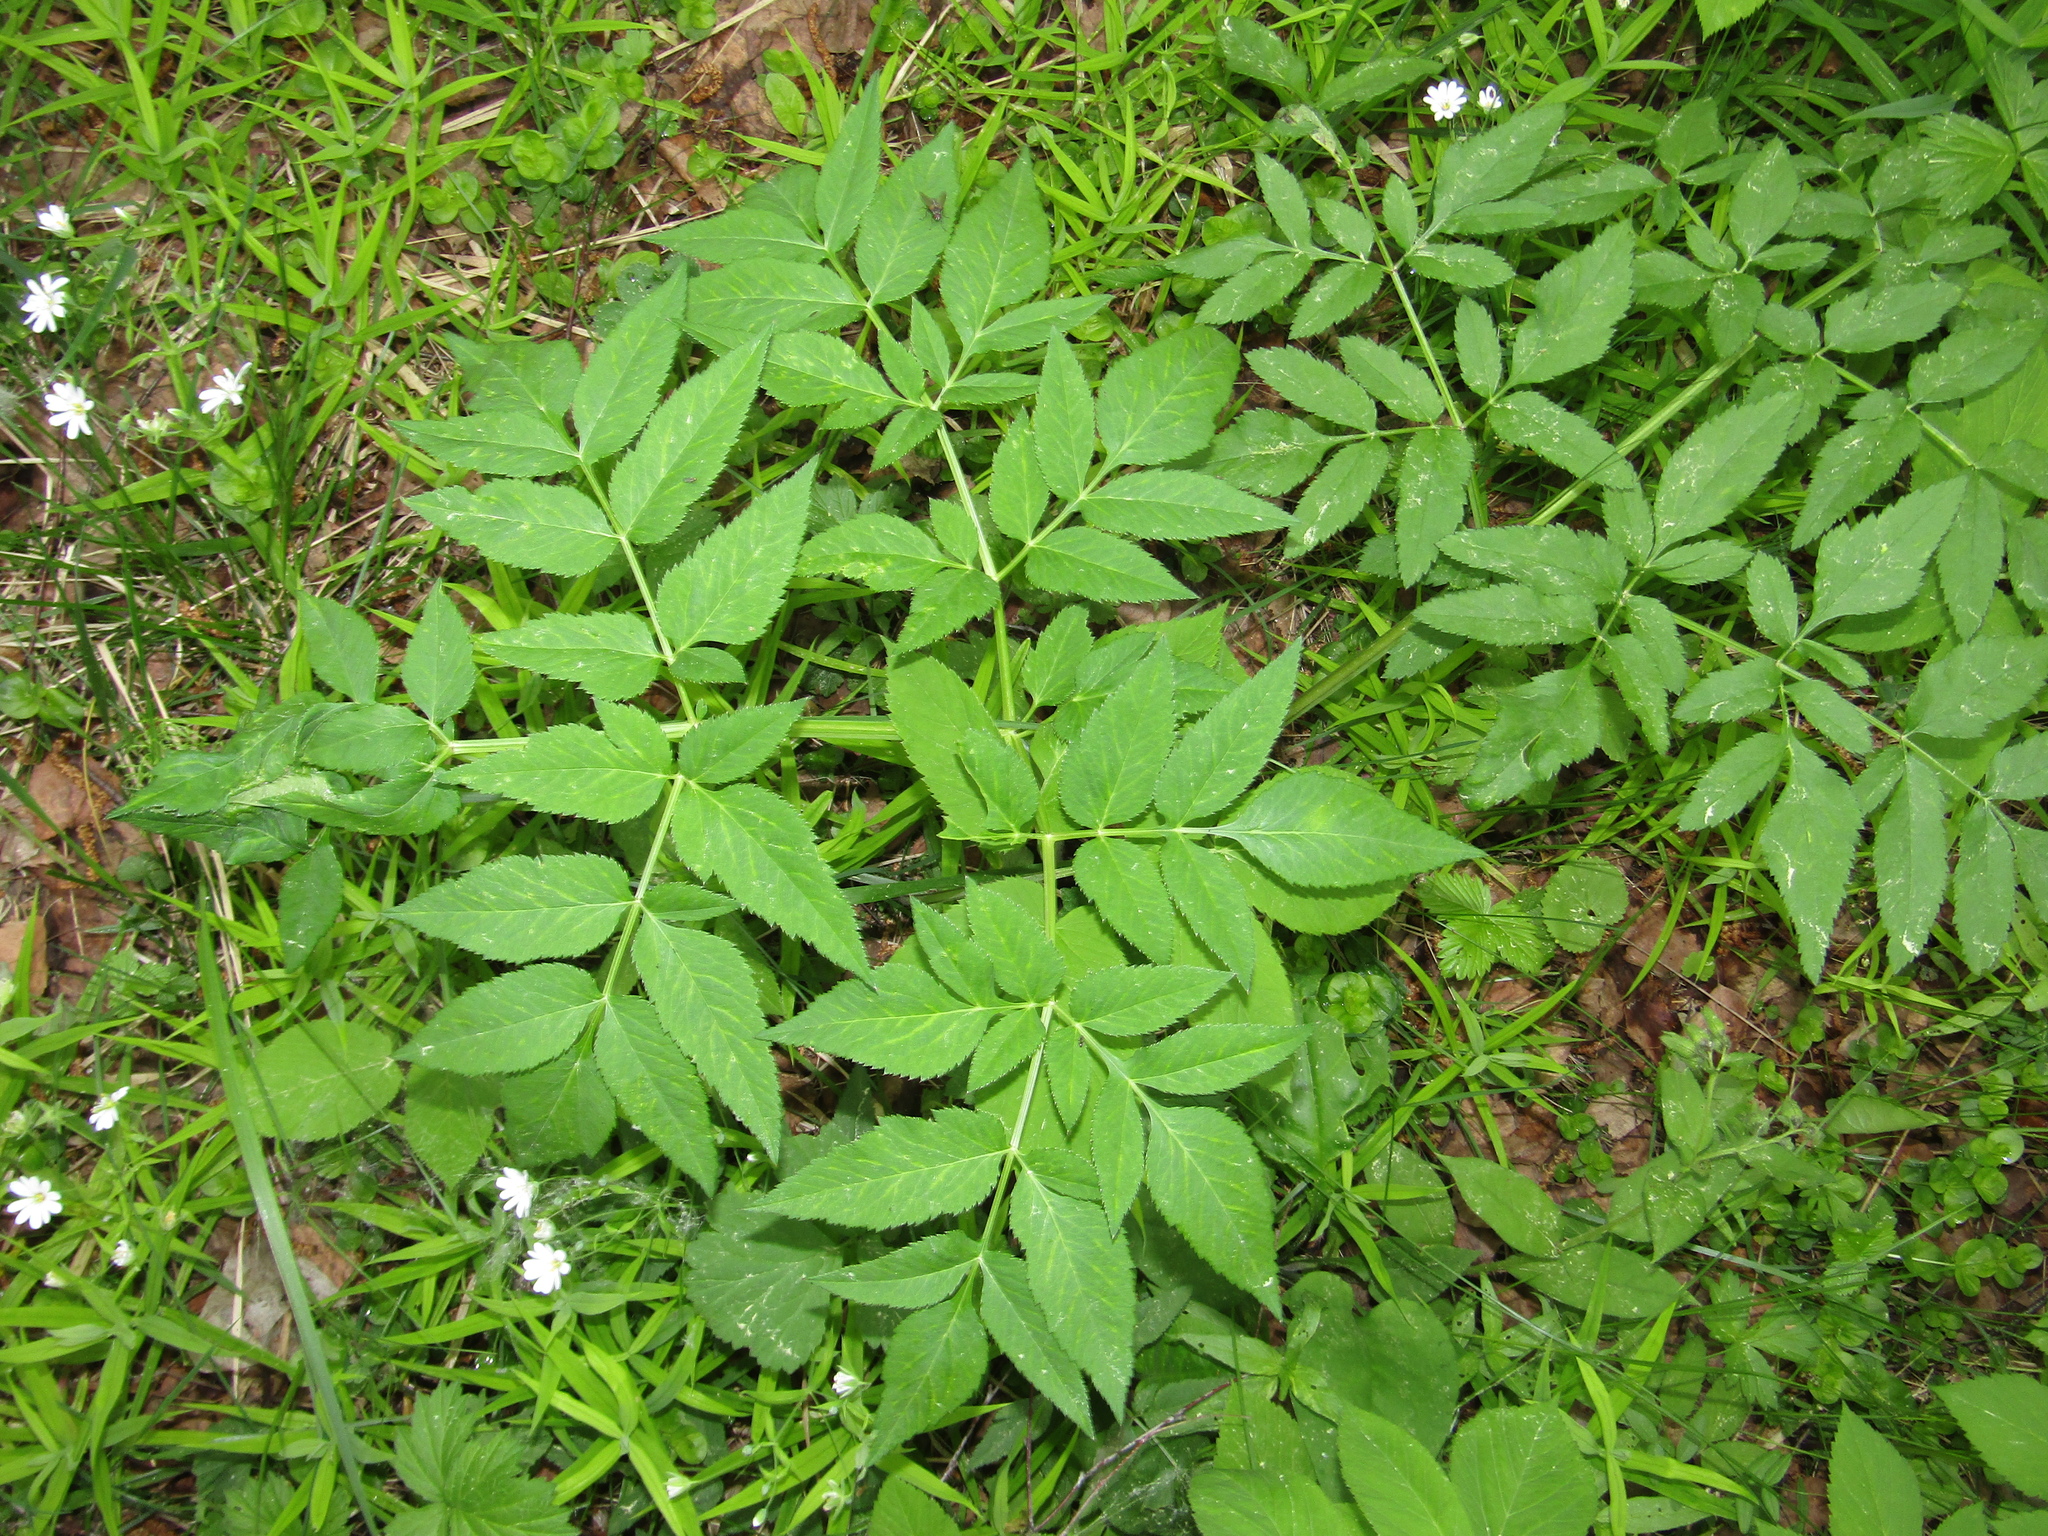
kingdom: Plantae
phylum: Tracheophyta
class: Magnoliopsida
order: Apiales
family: Apiaceae
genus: Angelica
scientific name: Angelica sylvestris
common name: Wild angelica
